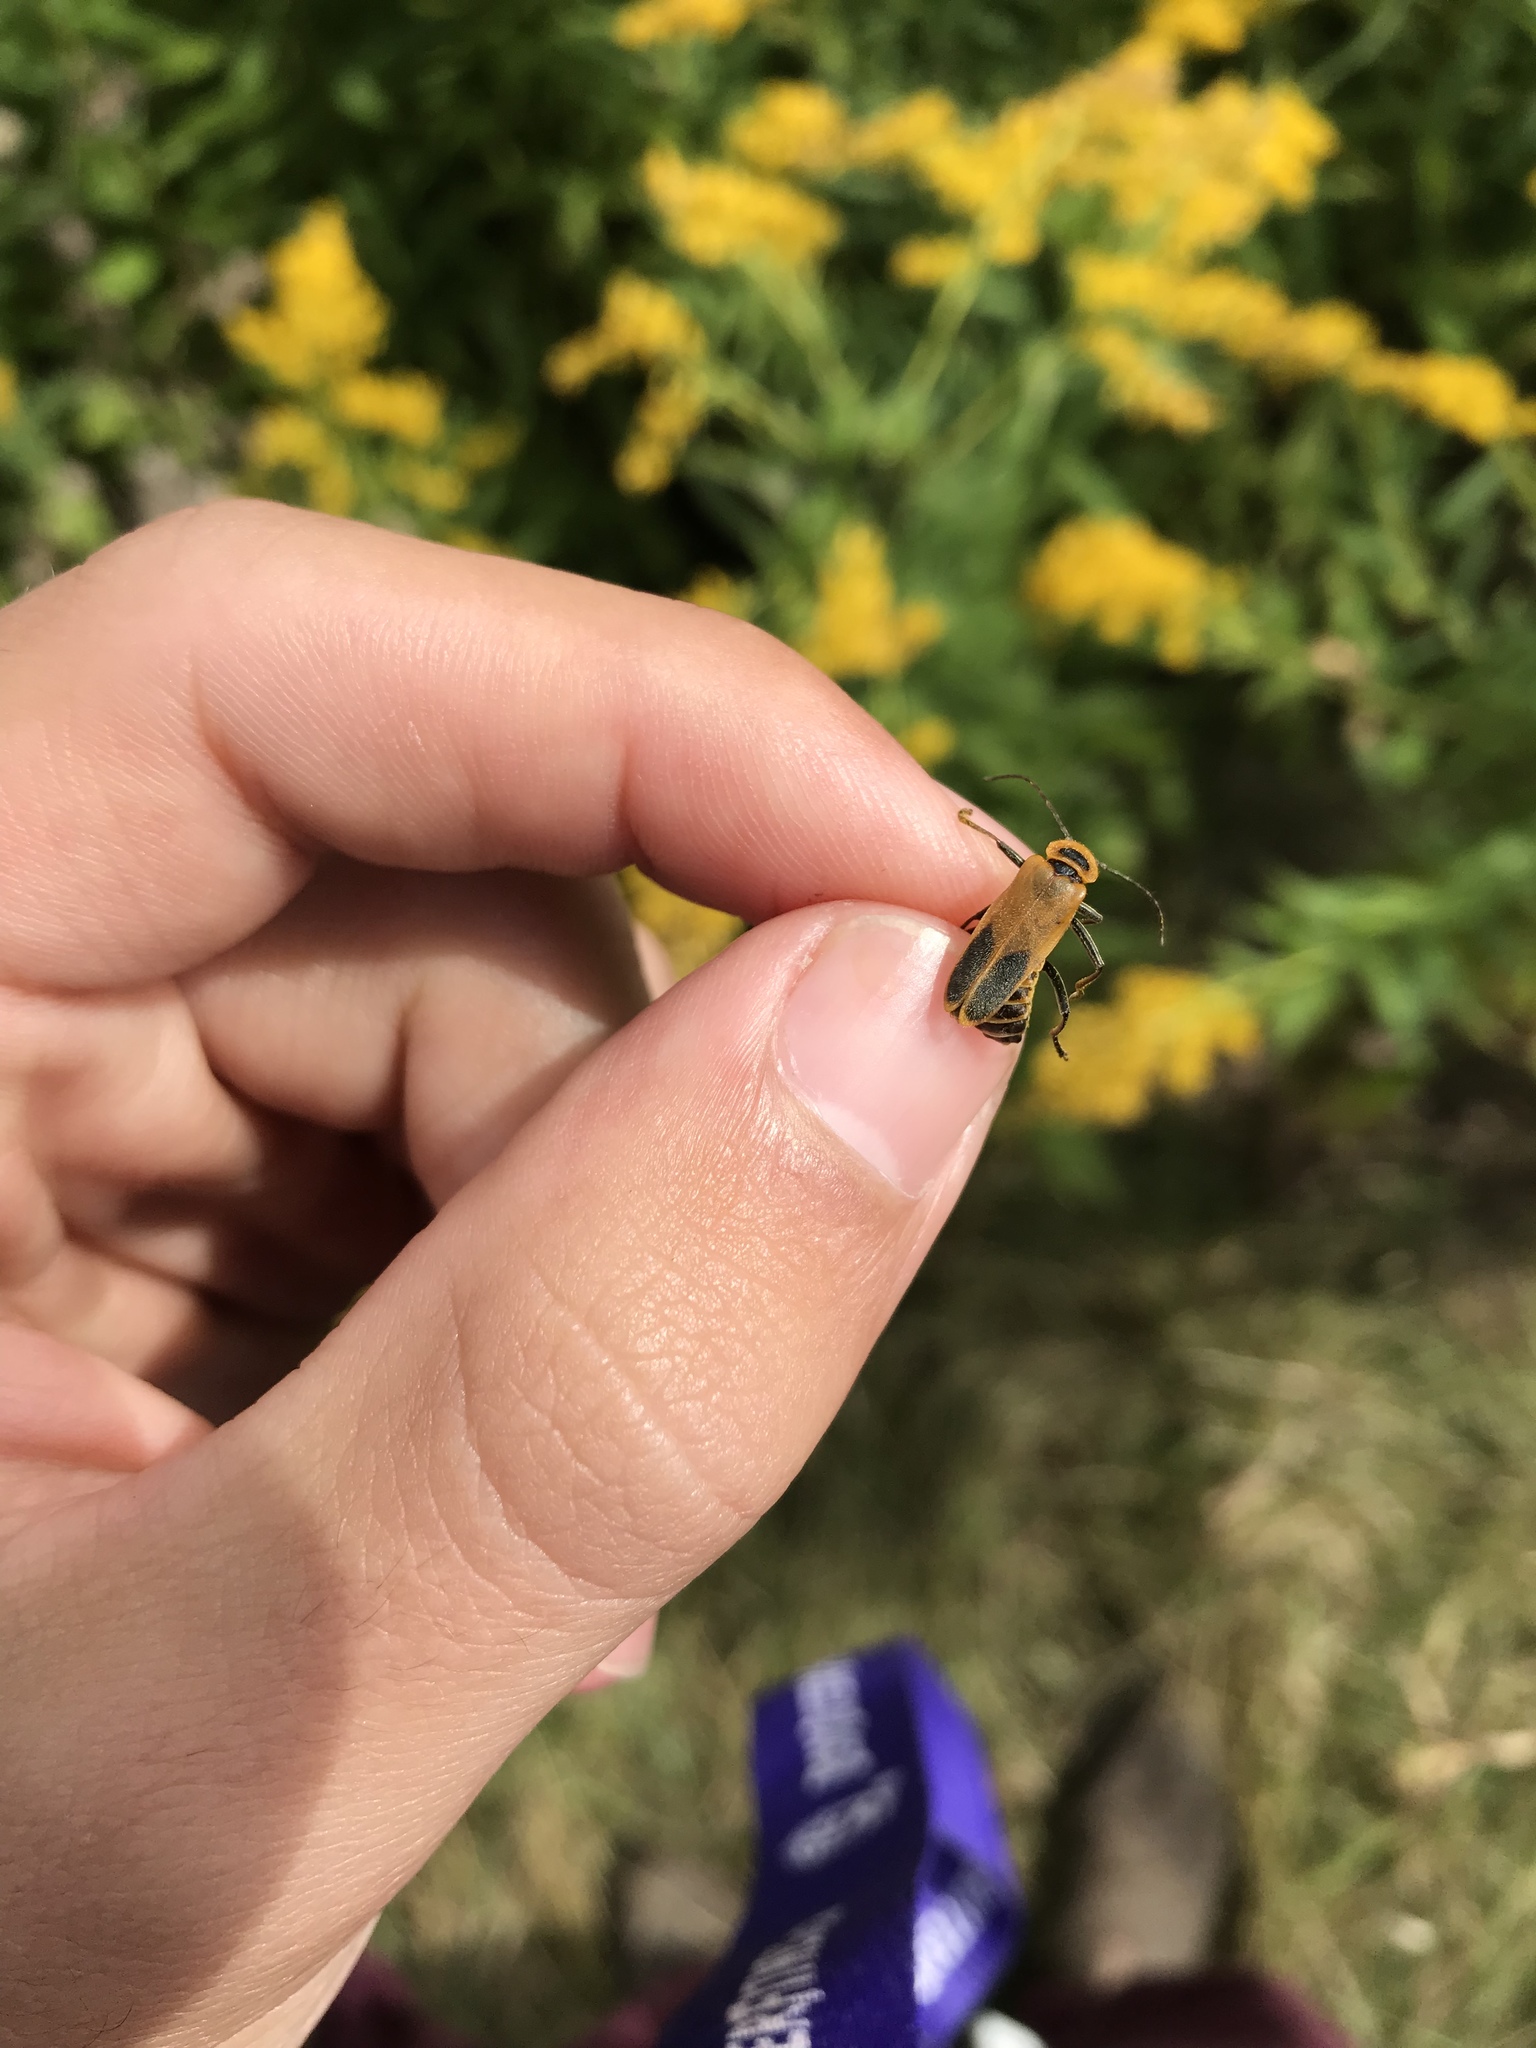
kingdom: Animalia
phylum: Arthropoda
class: Insecta
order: Coleoptera
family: Cantharidae
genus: Chauliognathus
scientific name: Chauliognathus pensylvanicus
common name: Goldenrod soldier beetle
